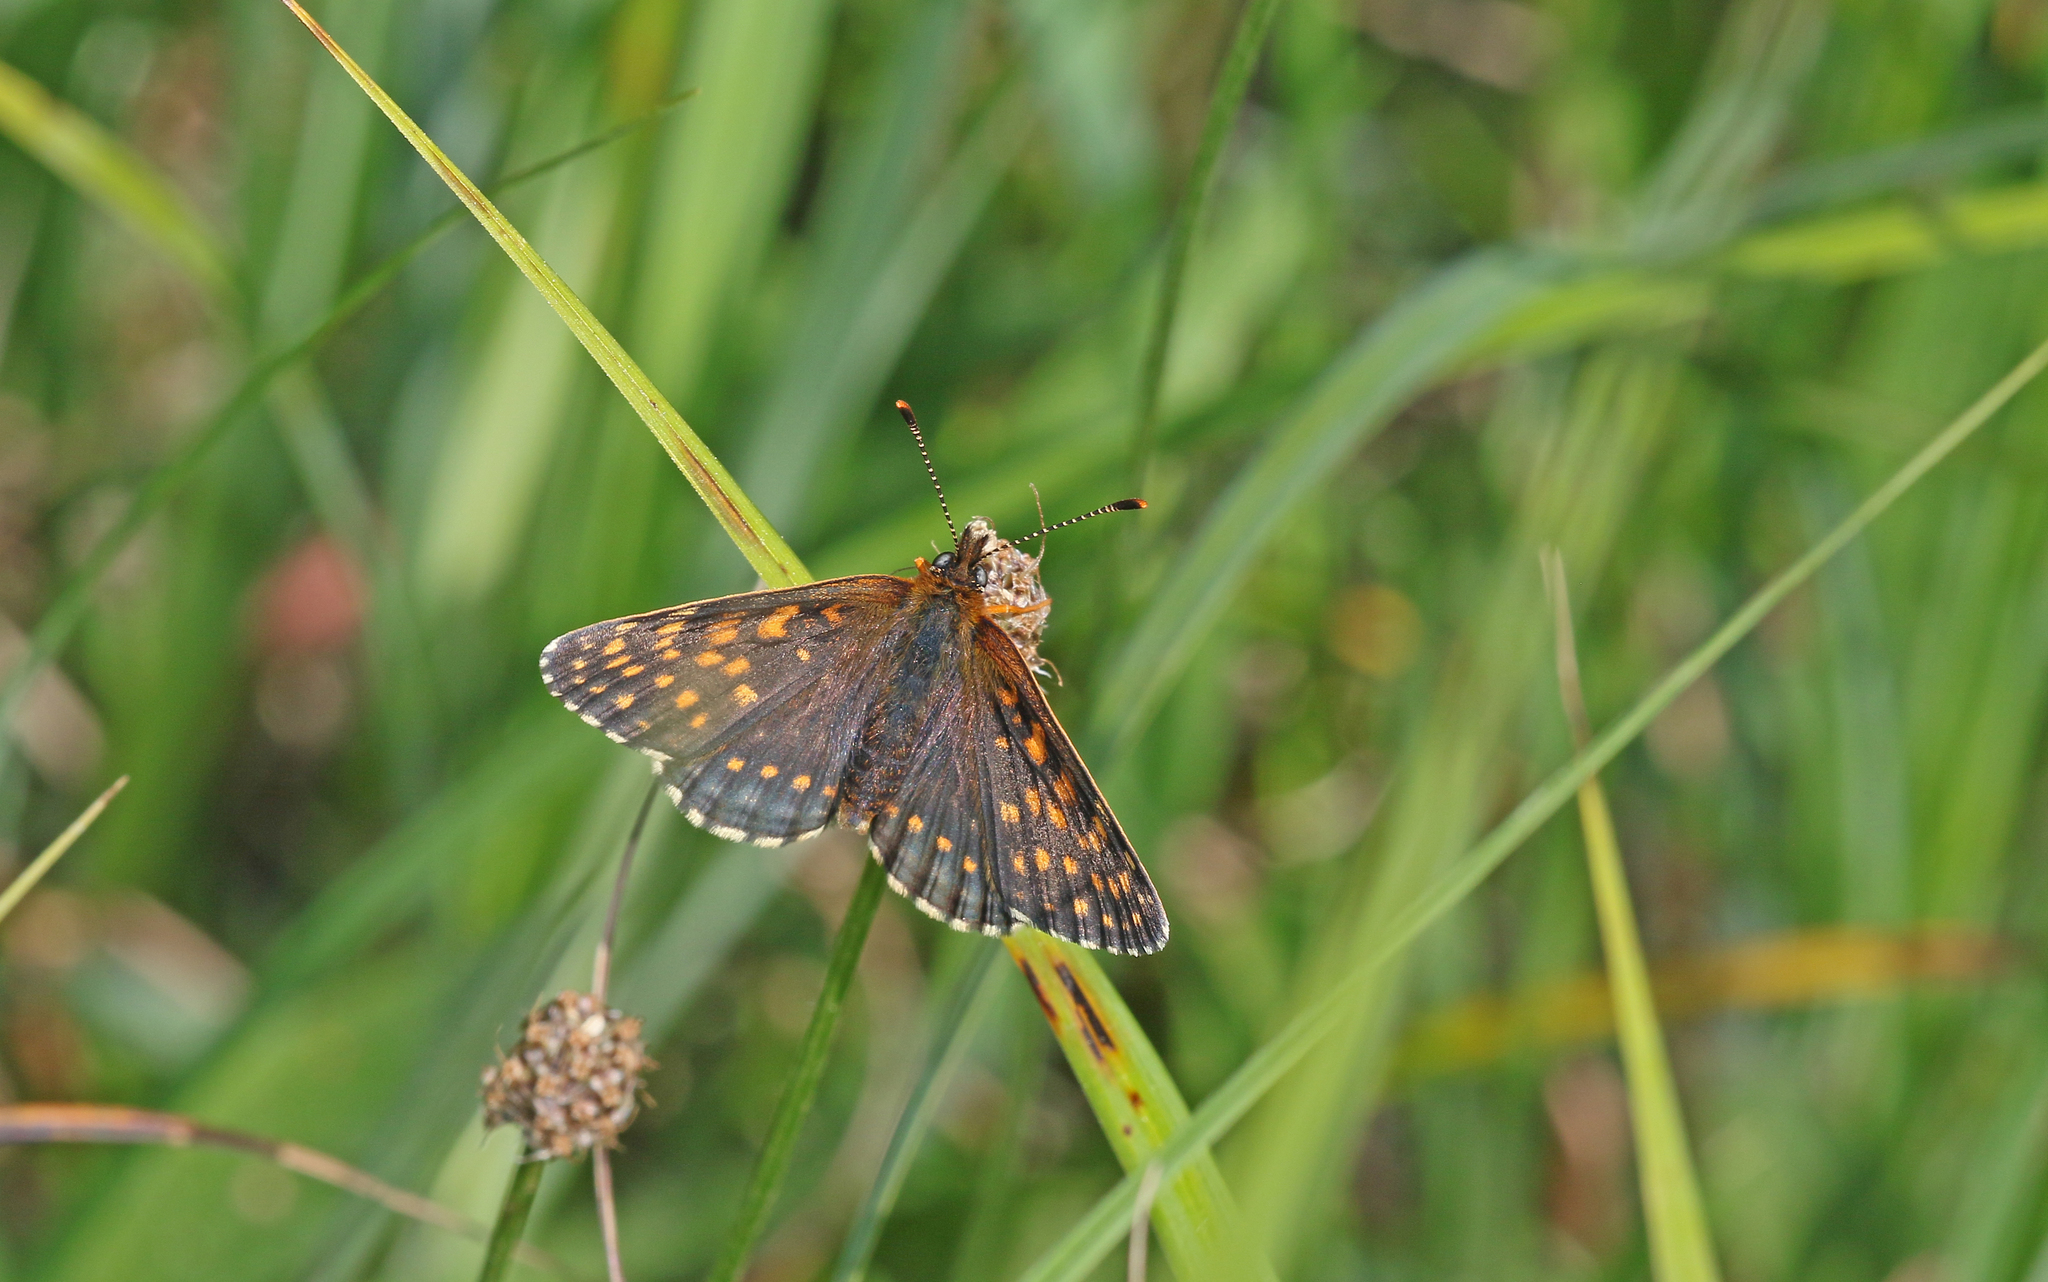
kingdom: Animalia
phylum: Arthropoda
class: Insecta
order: Lepidoptera
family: Nymphalidae
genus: Melitaea
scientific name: Melitaea diamina
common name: False heath fritillary
